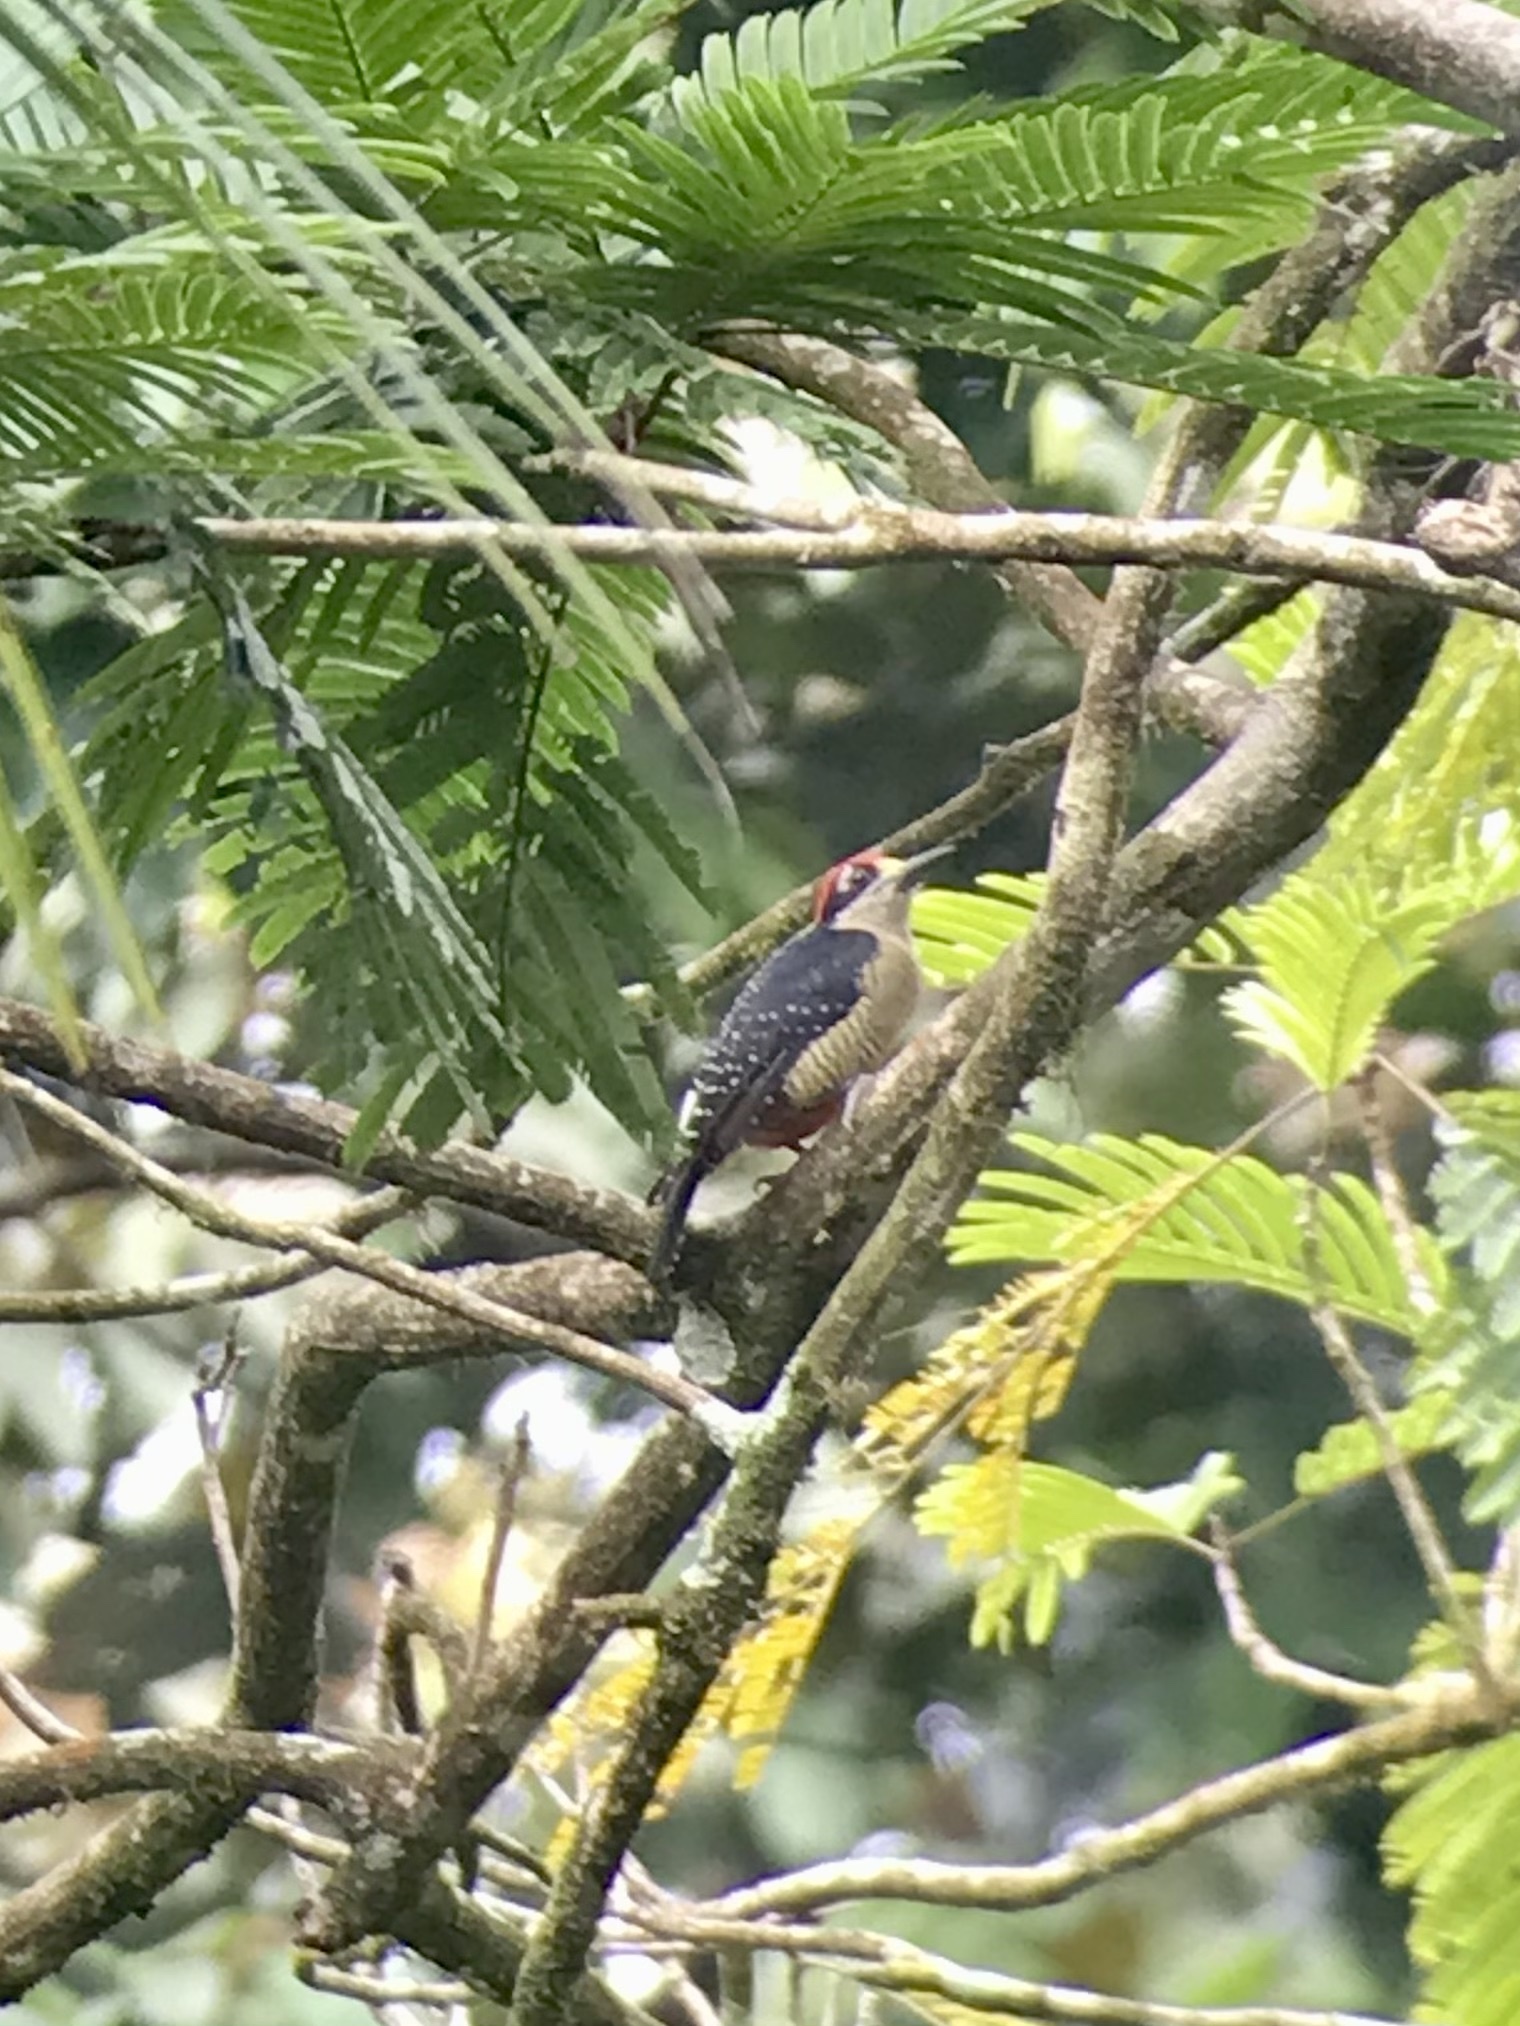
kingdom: Animalia
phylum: Chordata
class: Aves
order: Piciformes
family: Picidae
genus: Melanerpes
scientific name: Melanerpes pucherani
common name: Black-cheeked woodpecker
